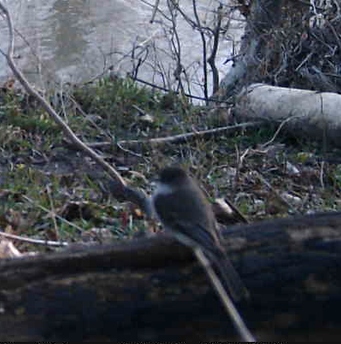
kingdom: Animalia
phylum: Chordata
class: Aves
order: Passeriformes
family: Tyrannidae
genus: Sayornis
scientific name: Sayornis phoebe
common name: Eastern phoebe
